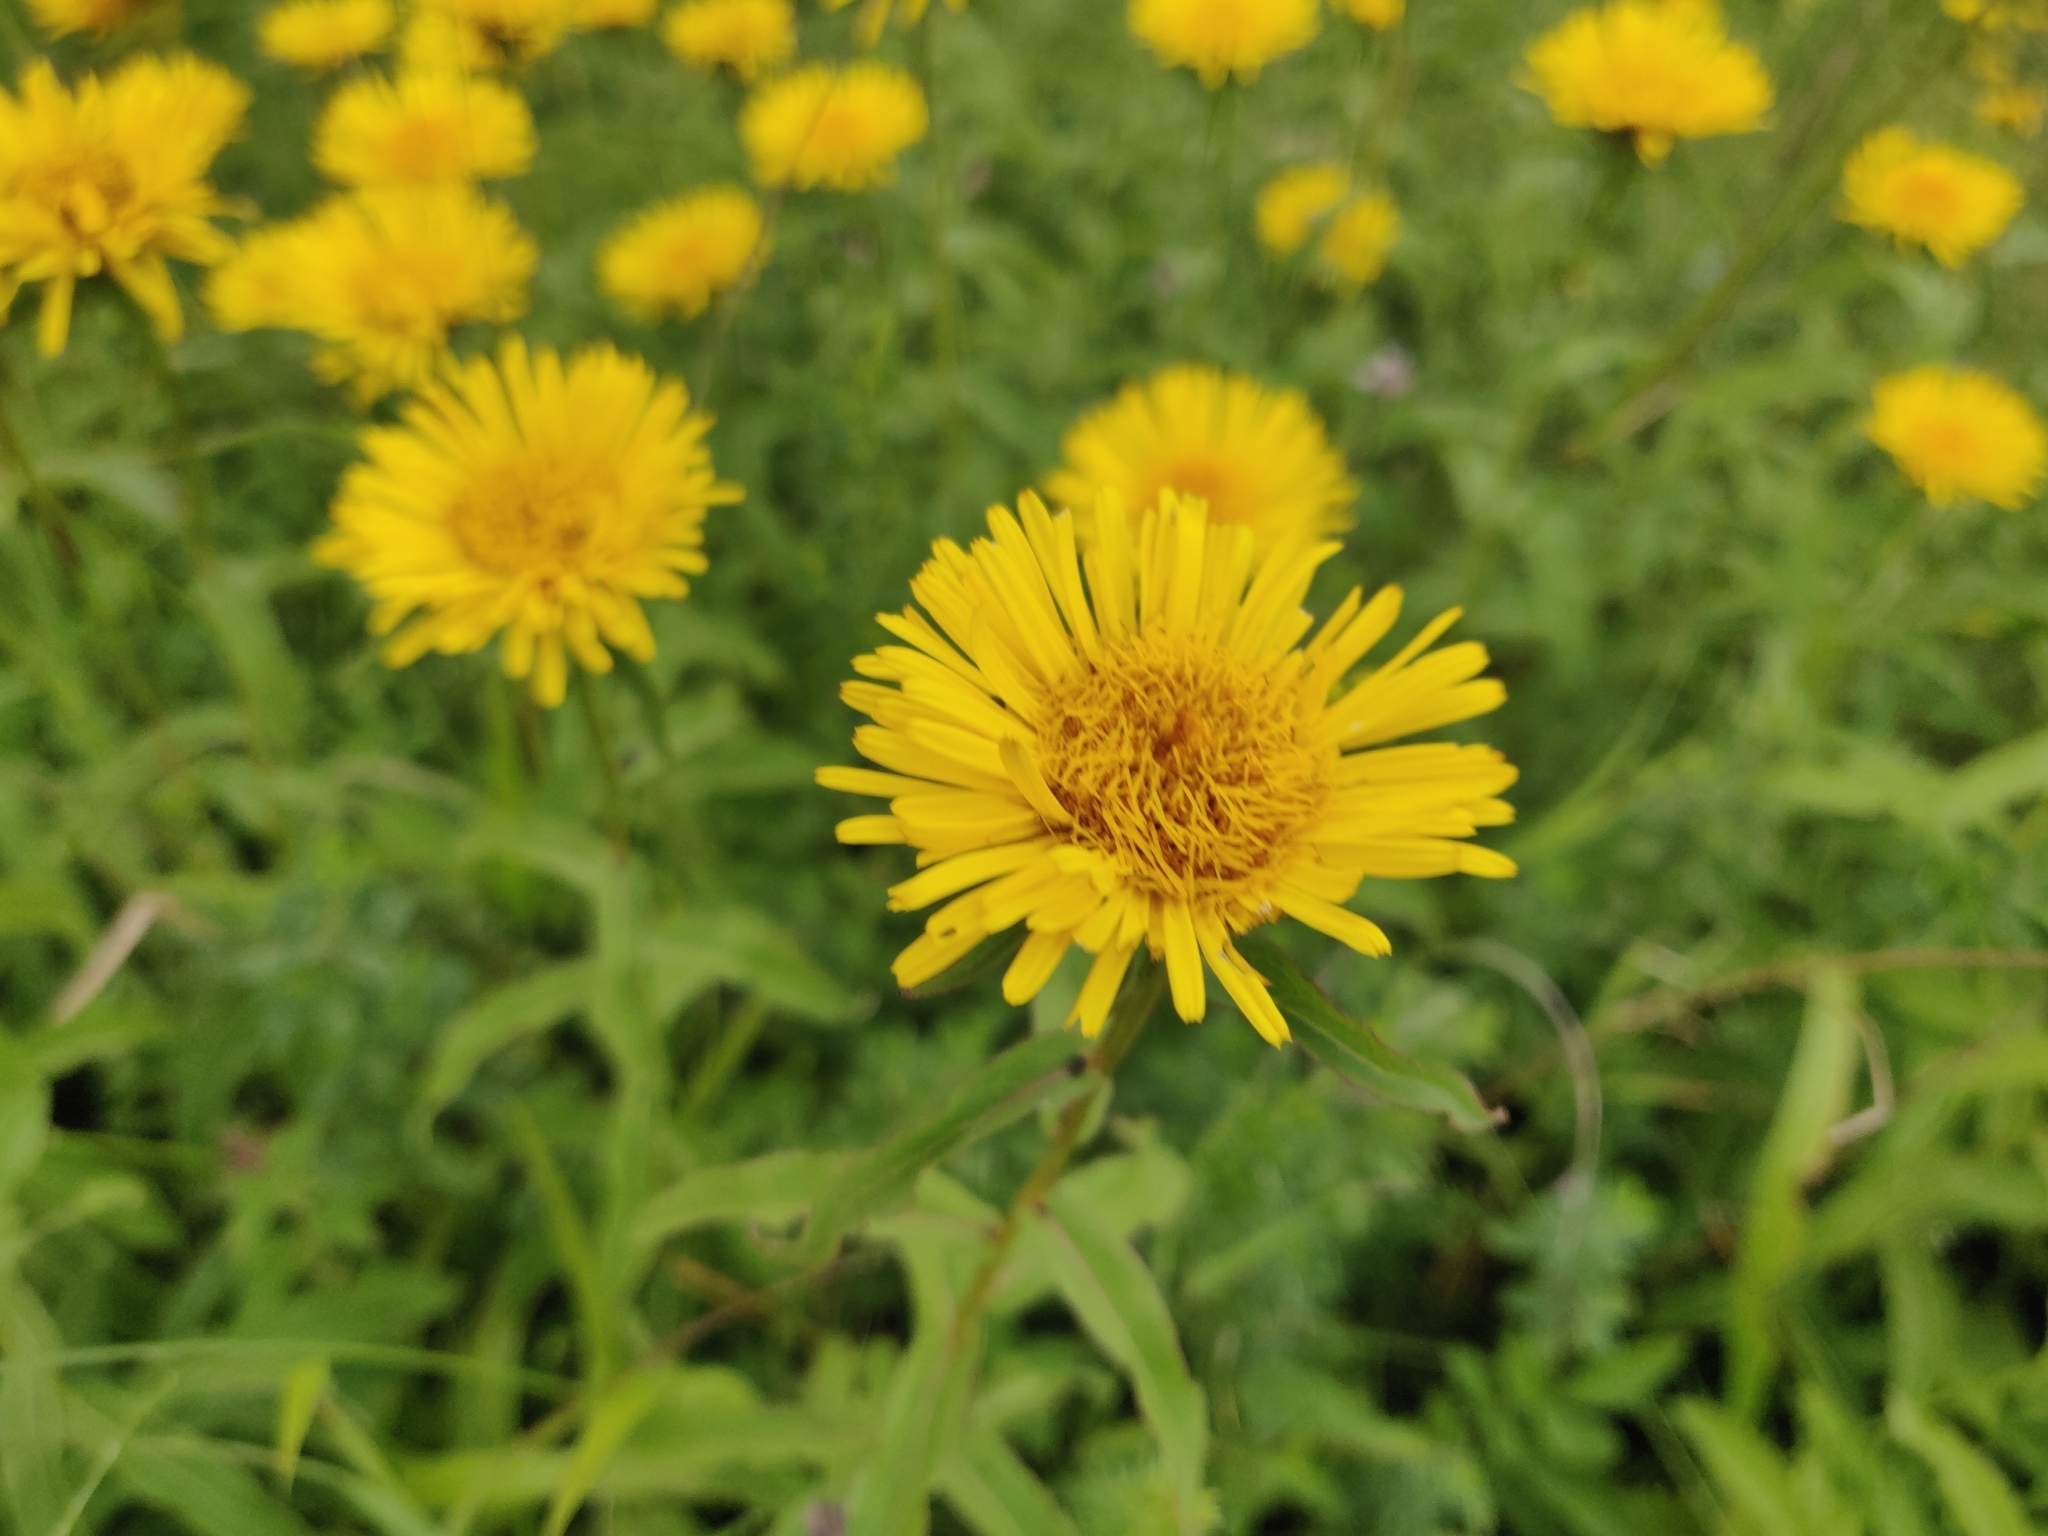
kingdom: Plantae
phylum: Tracheophyta
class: Magnoliopsida
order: Asterales
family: Asteraceae
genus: Pentanema
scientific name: Pentanema salicinum
